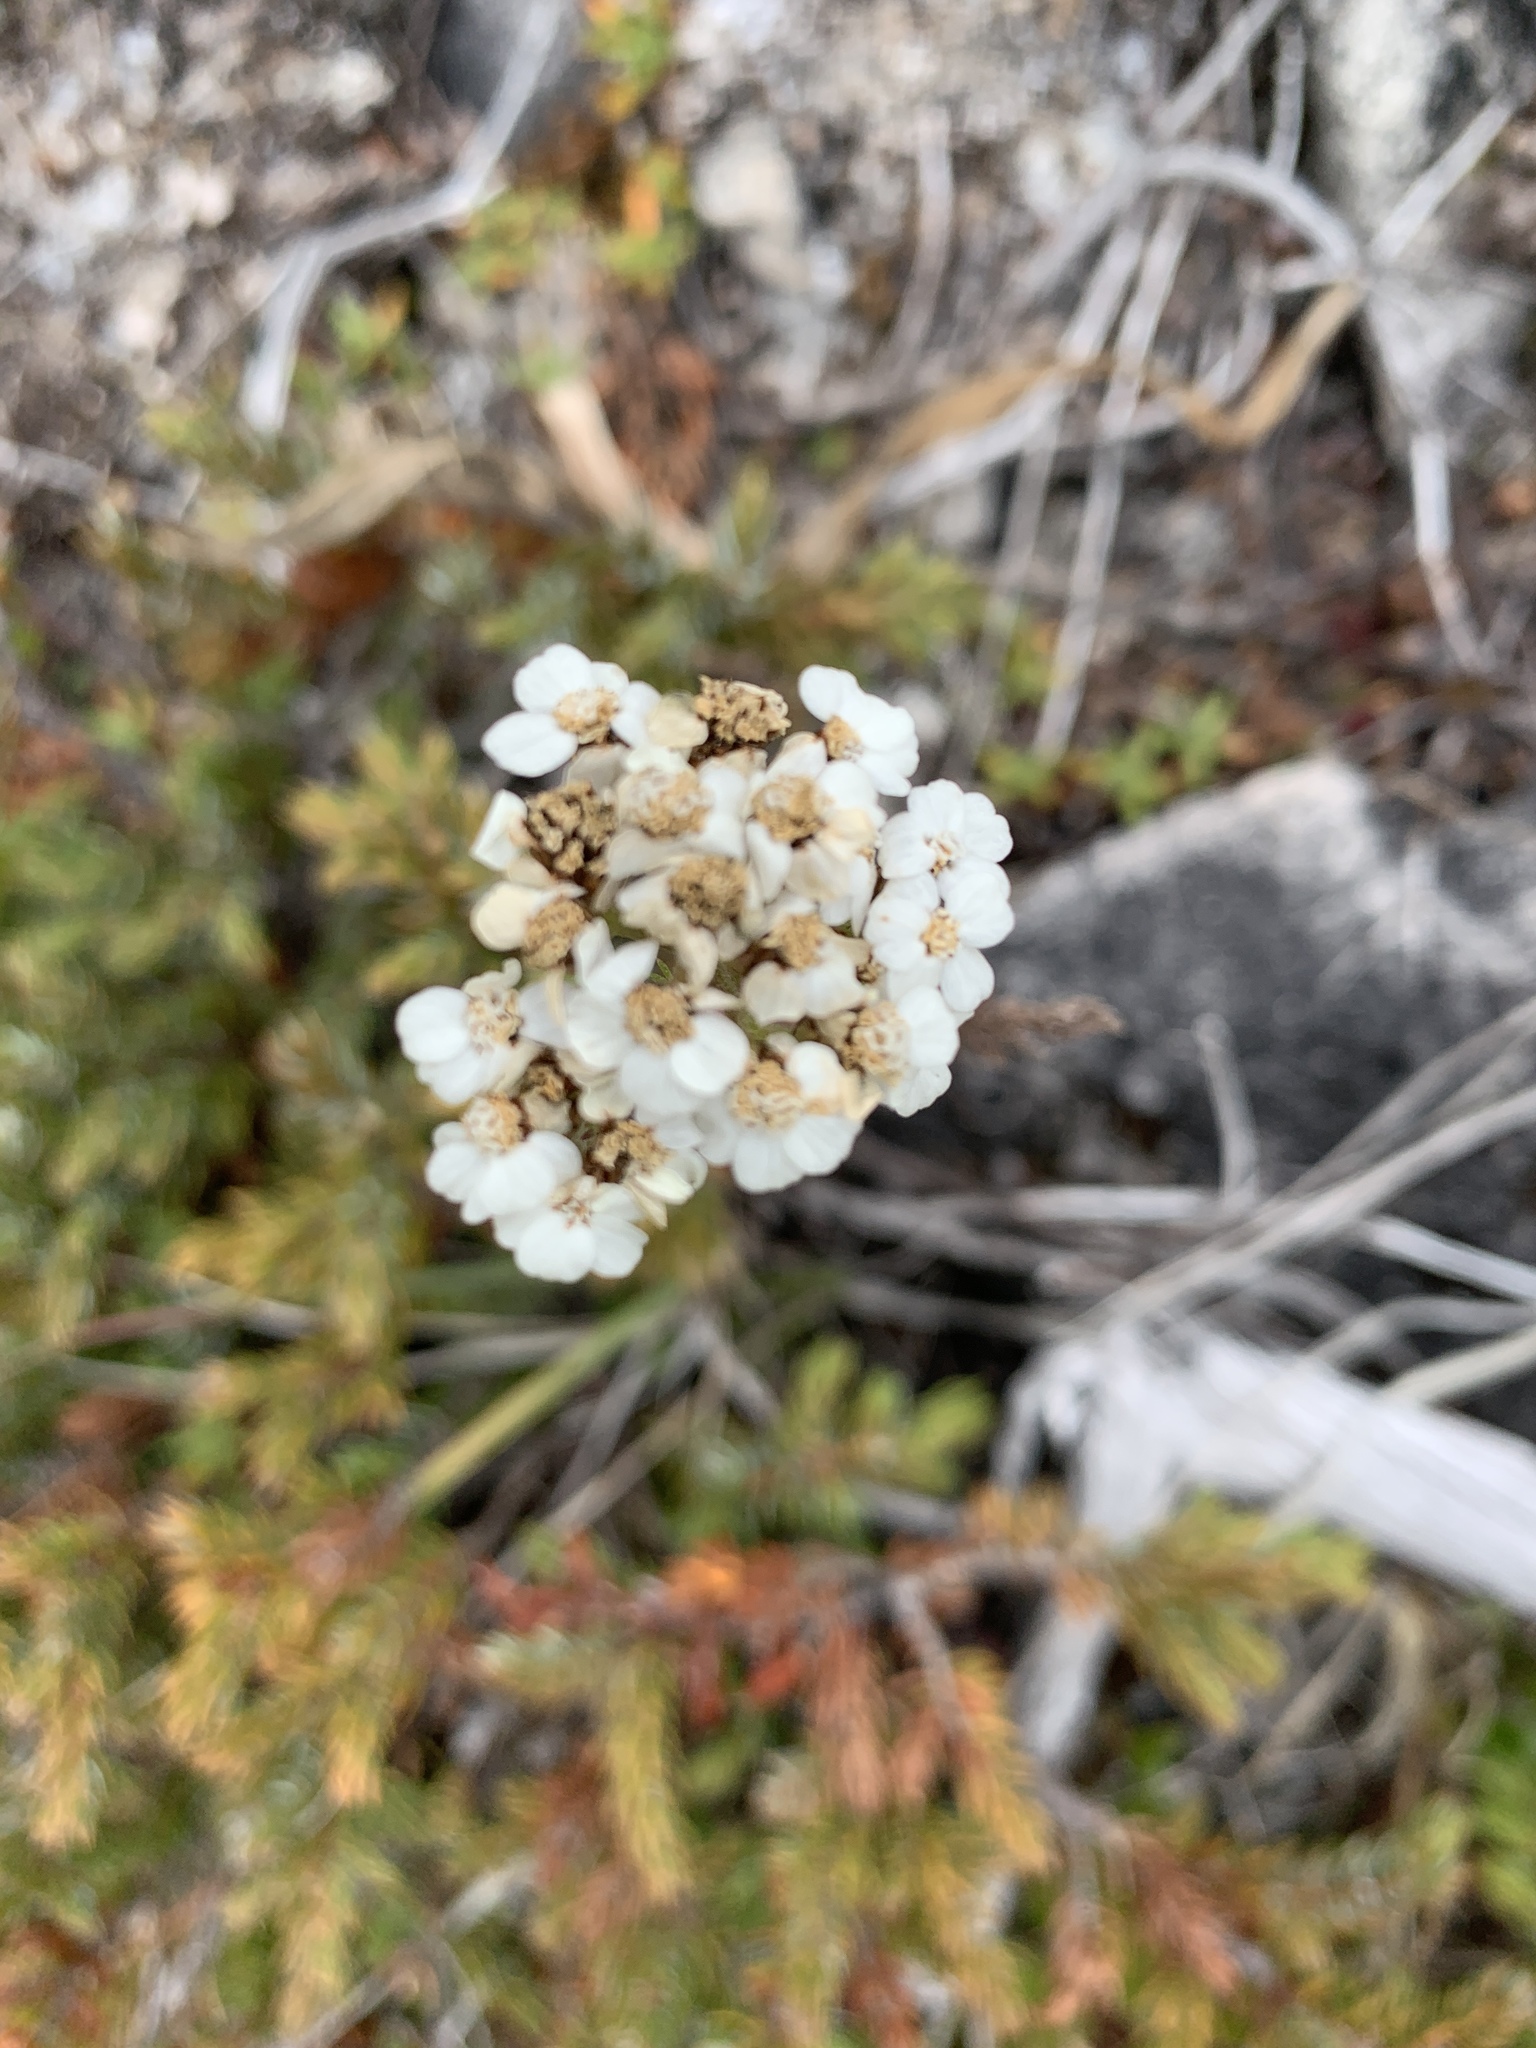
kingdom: Plantae
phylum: Tracheophyta
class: Magnoliopsida
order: Asterales
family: Asteraceae
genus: Achillea
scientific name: Achillea millefolium
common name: Yarrow
